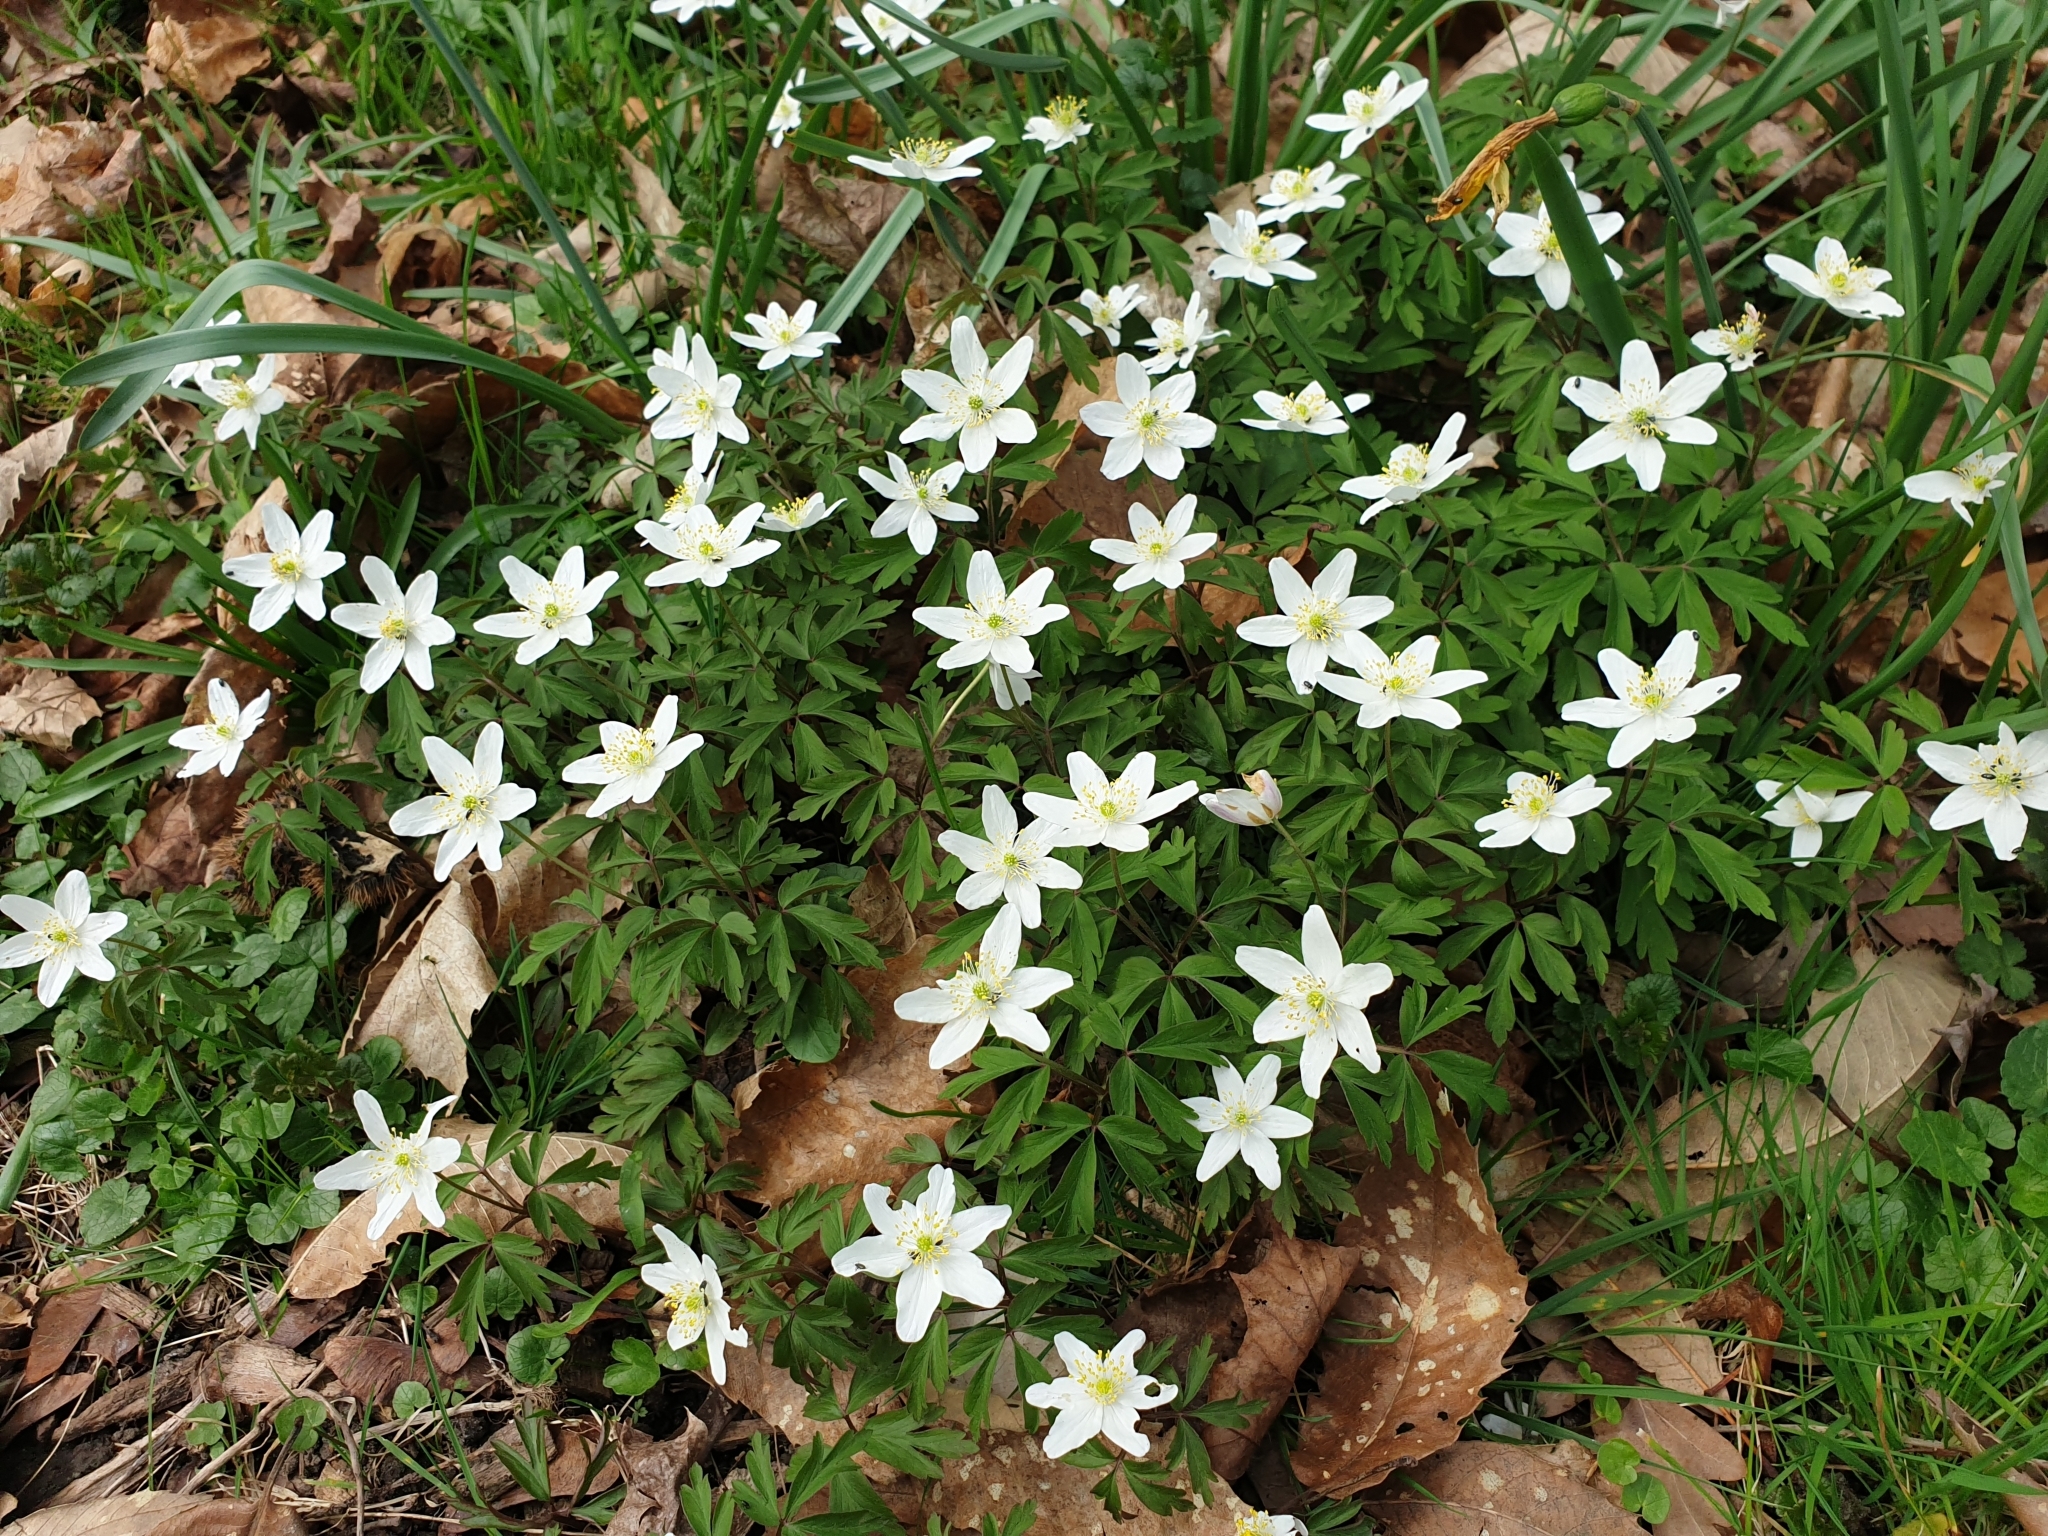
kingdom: Plantae
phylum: Tracheophyta
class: Magnoliopsida
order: Ranunculales
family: Ranunculaceae
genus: Anemone
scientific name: Anemone nemorosa
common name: Wood anemone
